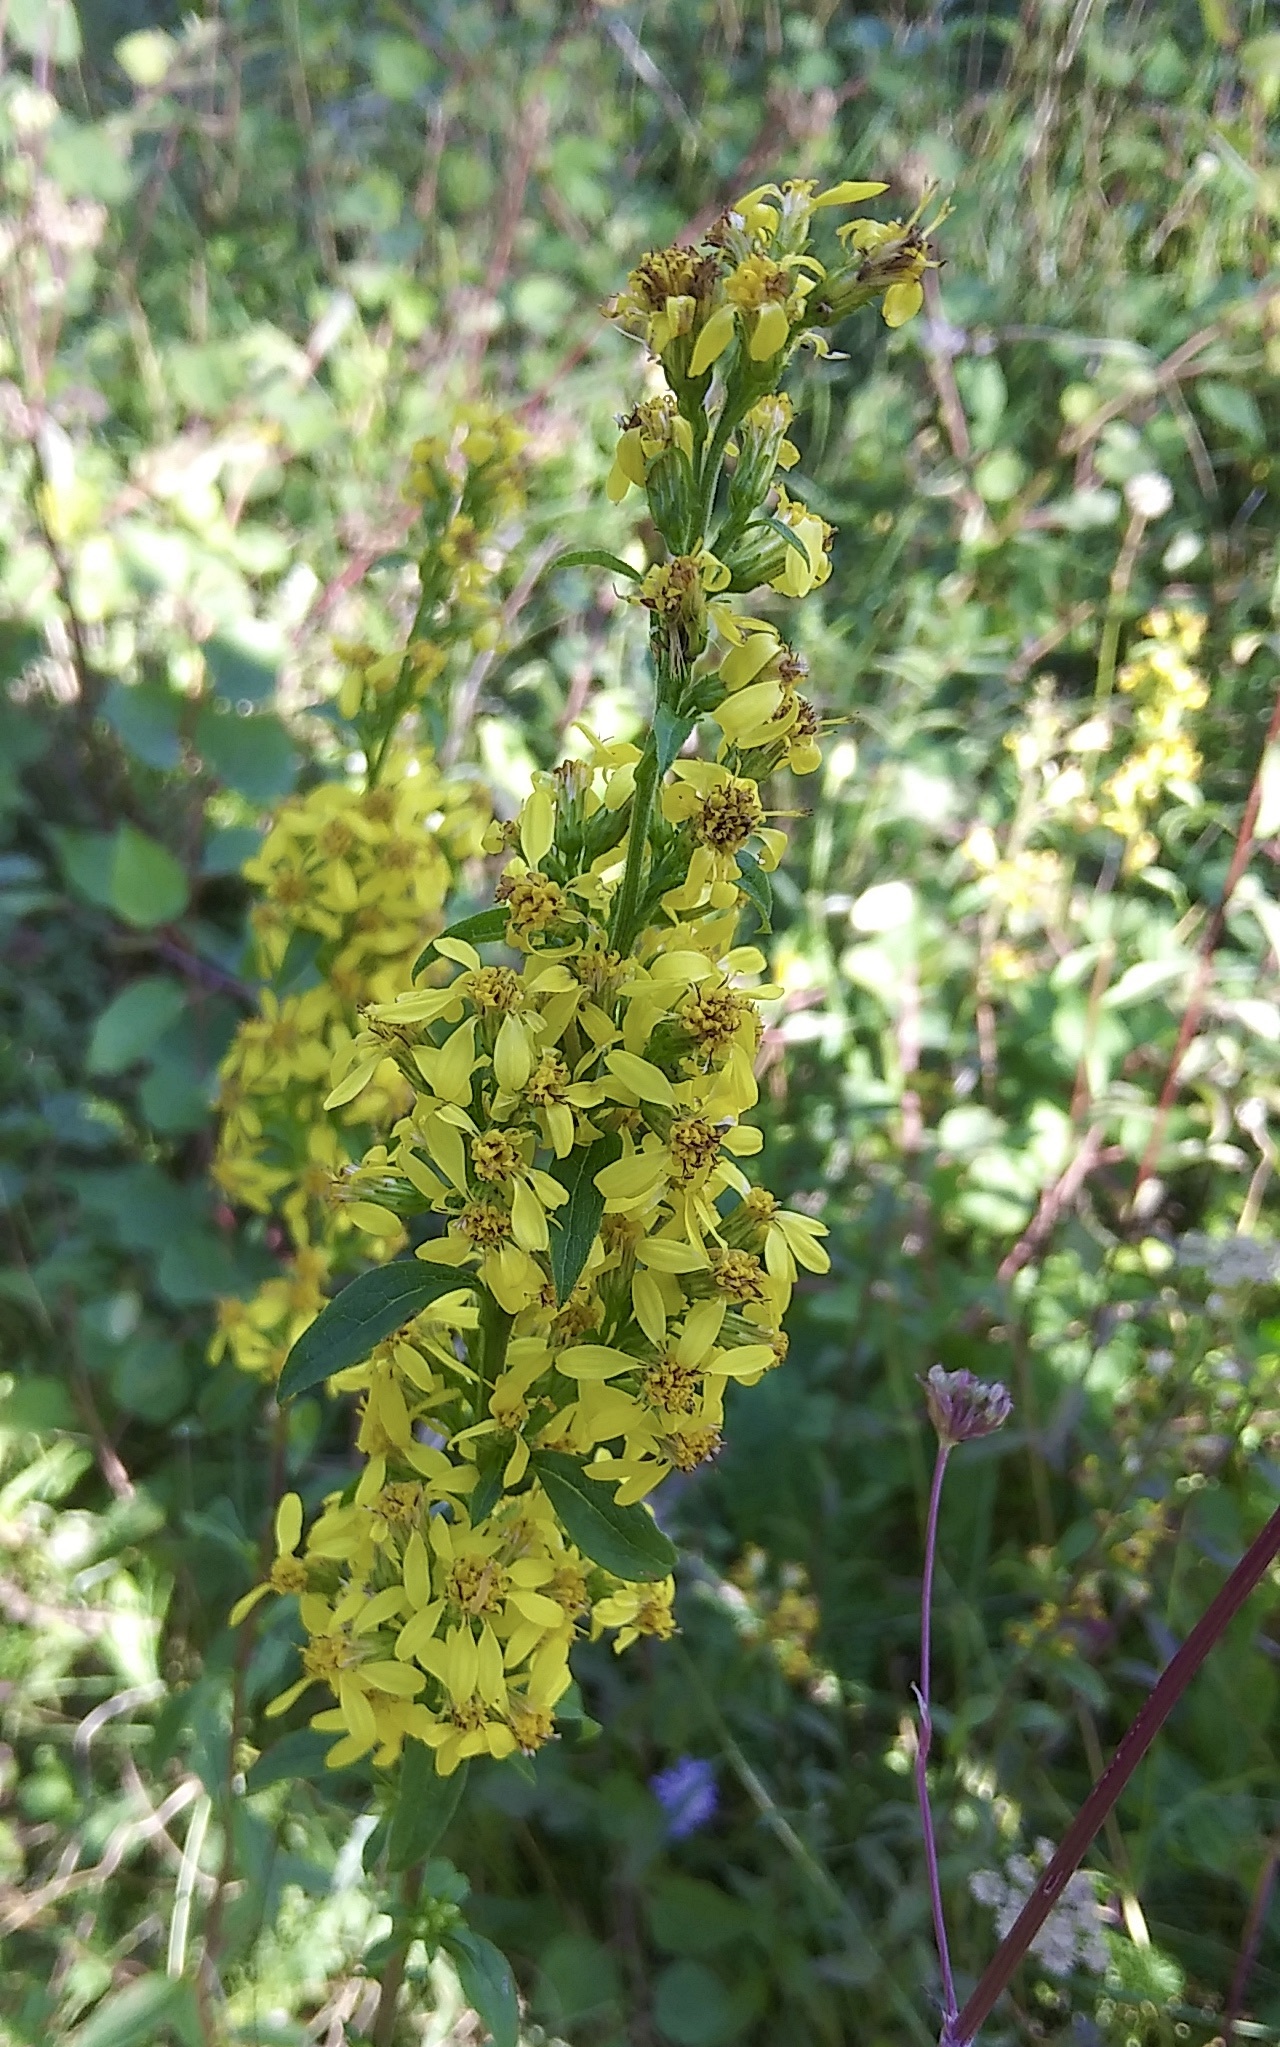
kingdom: Plantae
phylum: Tracheophyta
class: Magnoliopsida
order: Asterales
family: Asteraceae
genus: Solidago
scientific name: Solidago virgaurea
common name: Goldenrod
